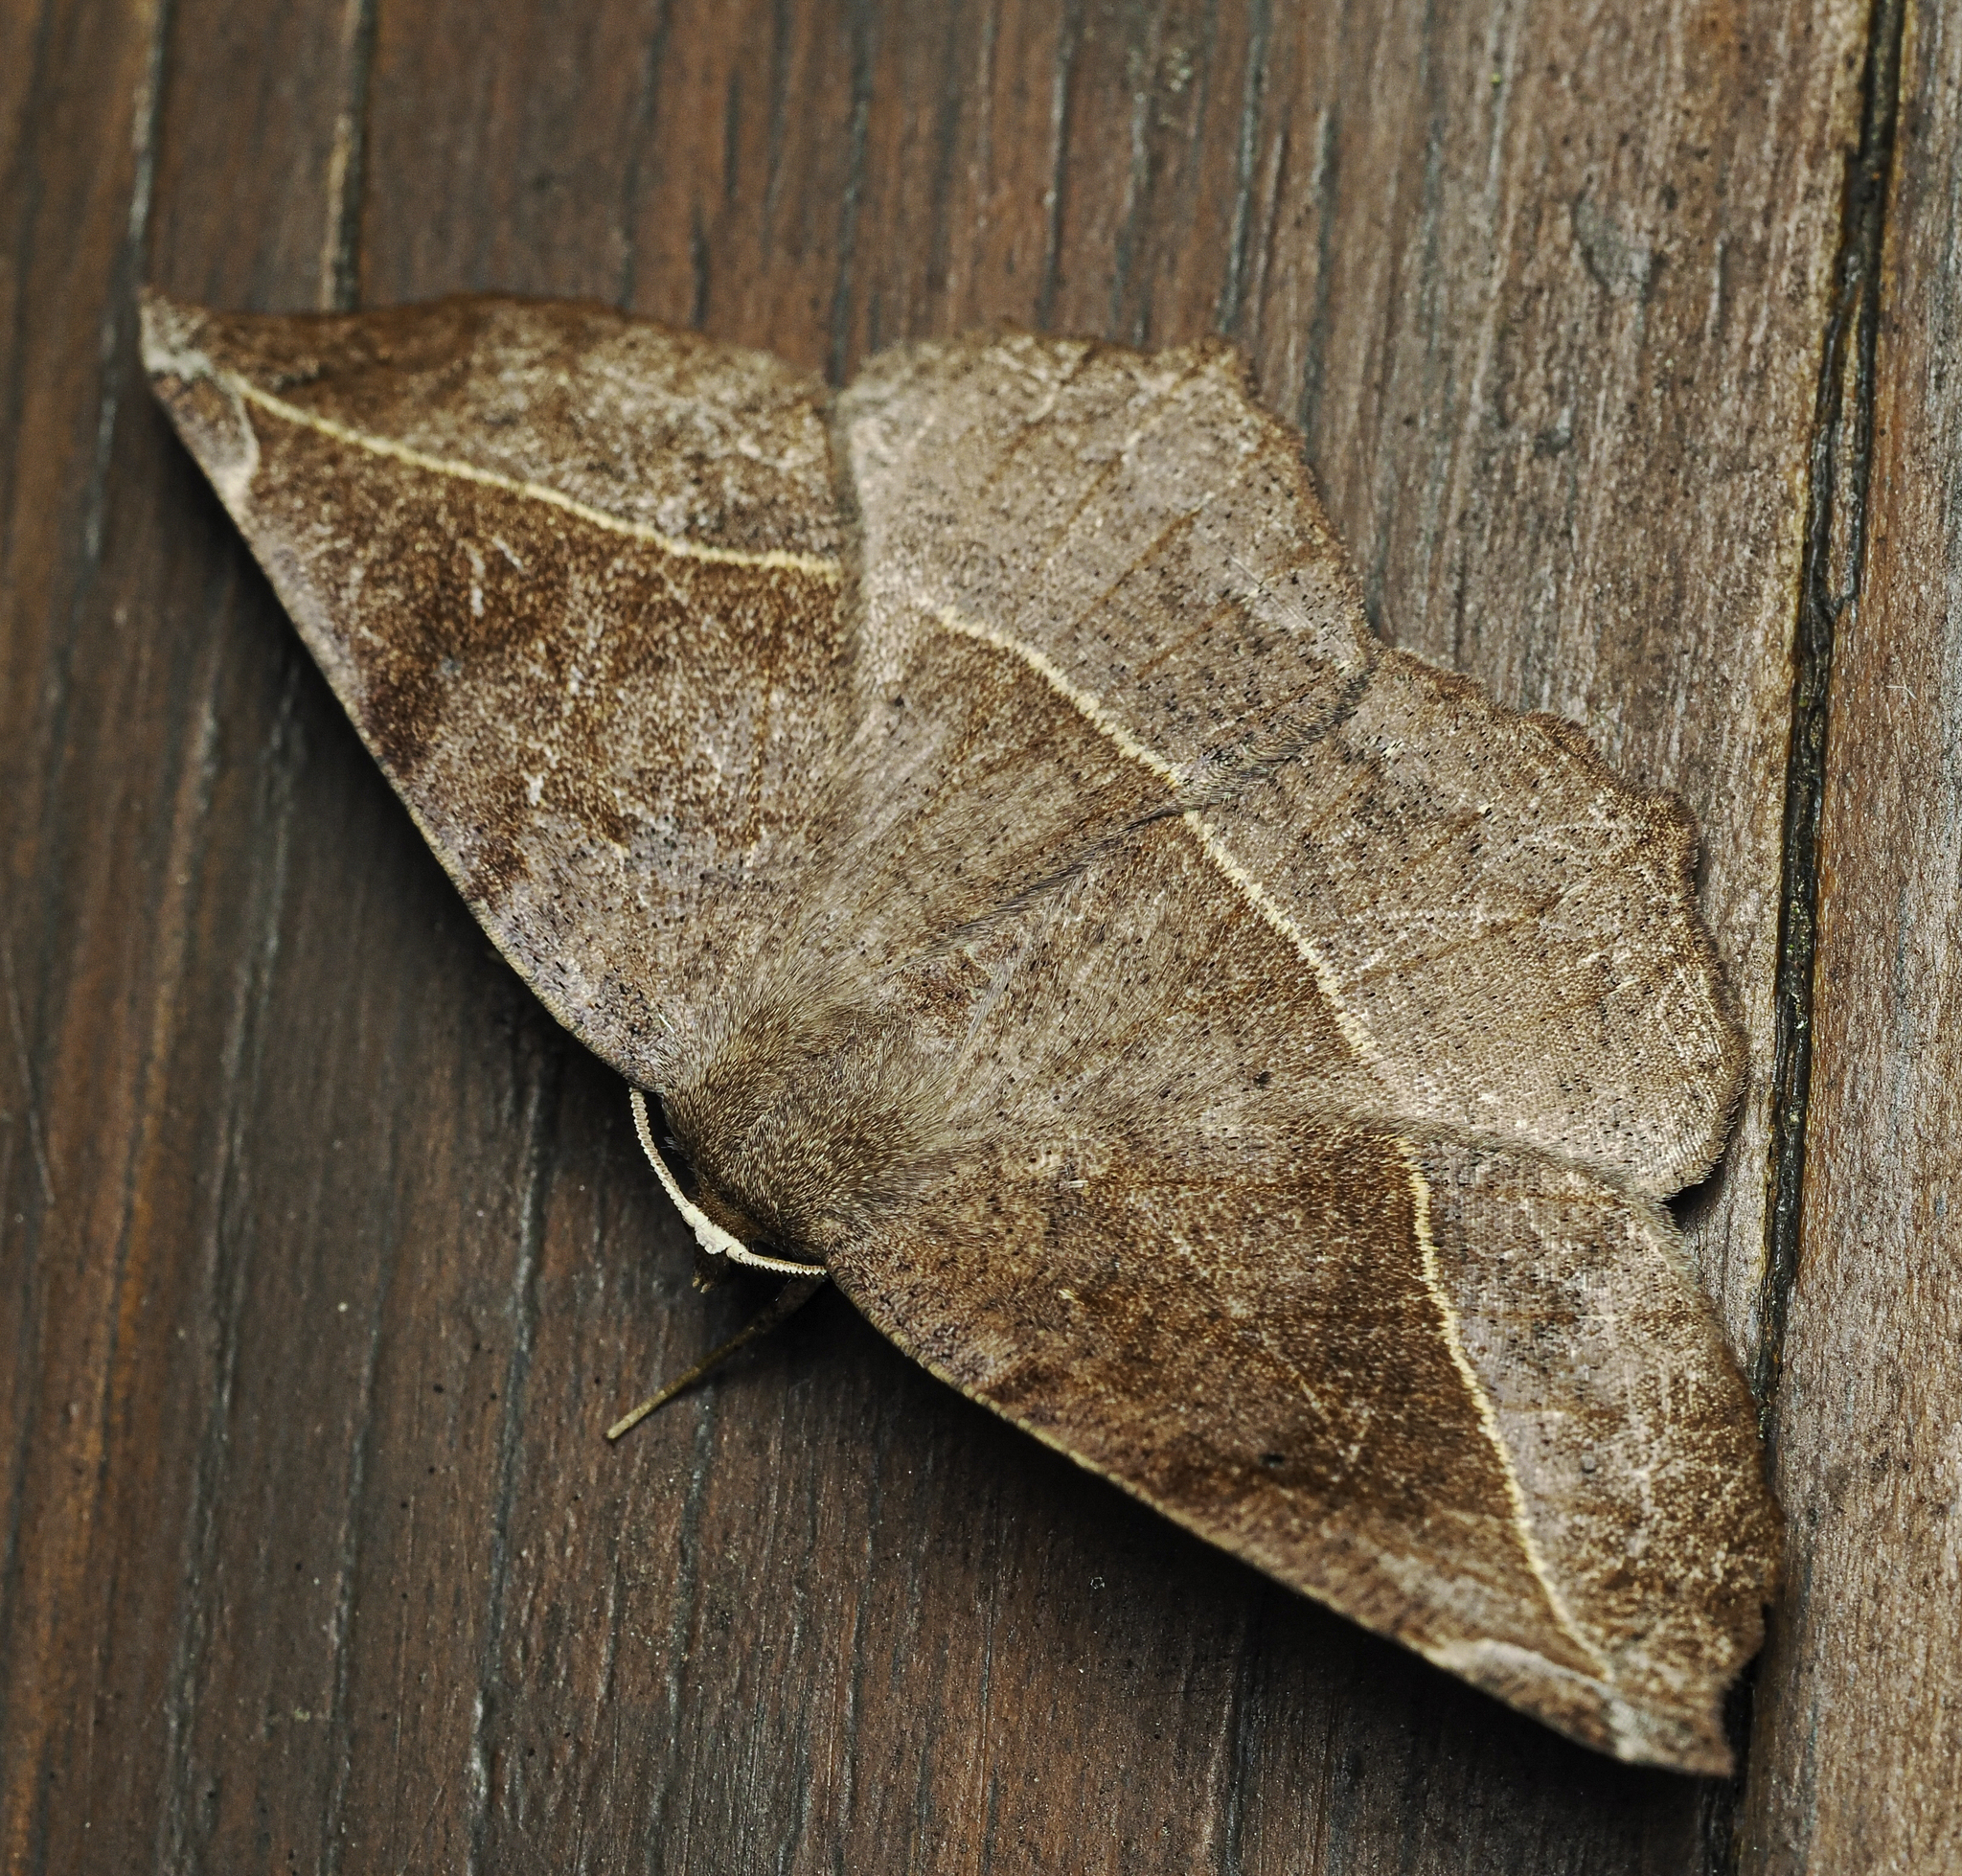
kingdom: Animalia
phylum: Arthropoda
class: Insecta
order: Lepidoptera
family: Geometridae
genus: Eutrapela
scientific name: Eutrapela clemataria
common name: Curved-toothed geometer
